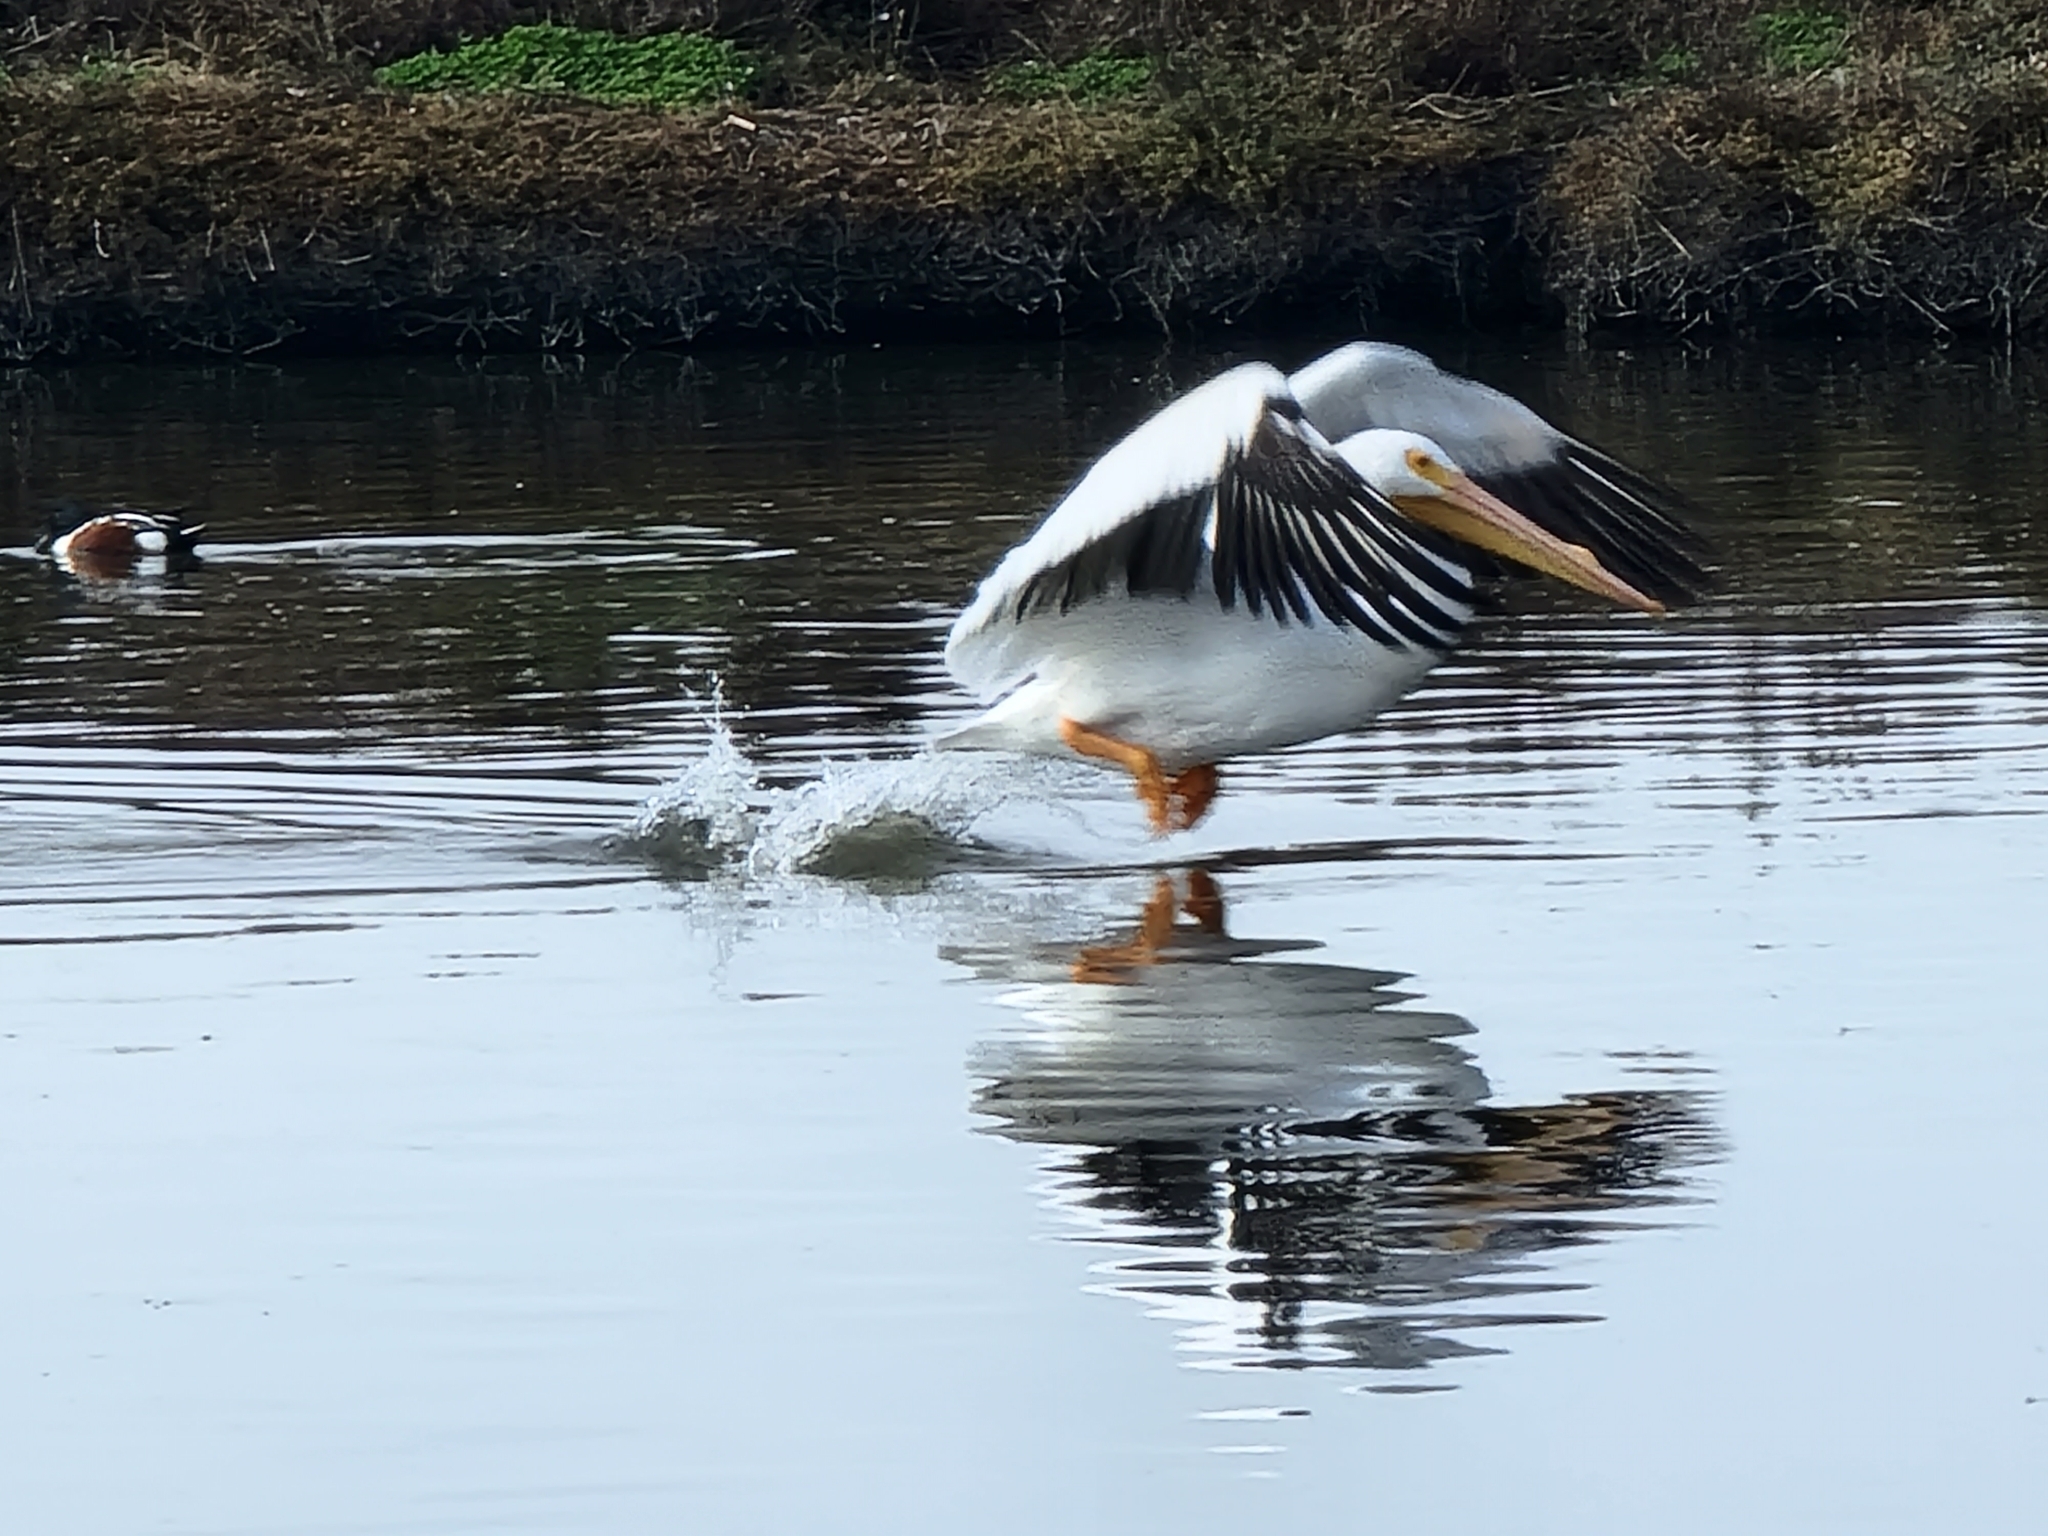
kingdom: Animalia
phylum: Chordata
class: Aves
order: Pelecaniformes
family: Pelecanidae
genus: Pelecanus
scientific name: Pelecanus erythrorhynchos
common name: American white pelican
